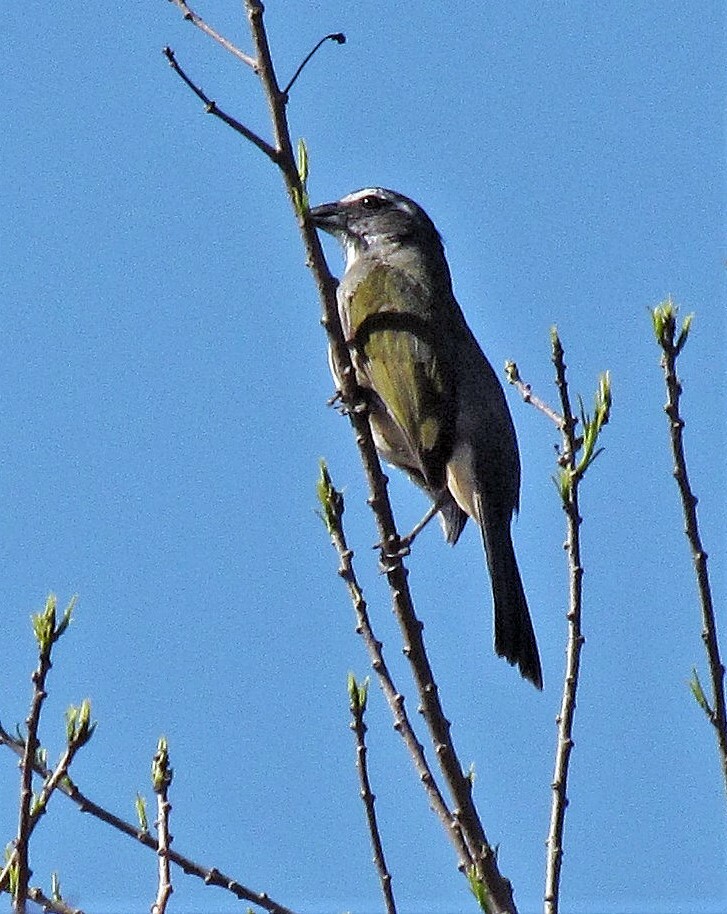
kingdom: Animalia
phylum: Chordata
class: Aves
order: Passeriformes
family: Thraupidae
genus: Saltator
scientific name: Saltator similis
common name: Green-winged saltator
